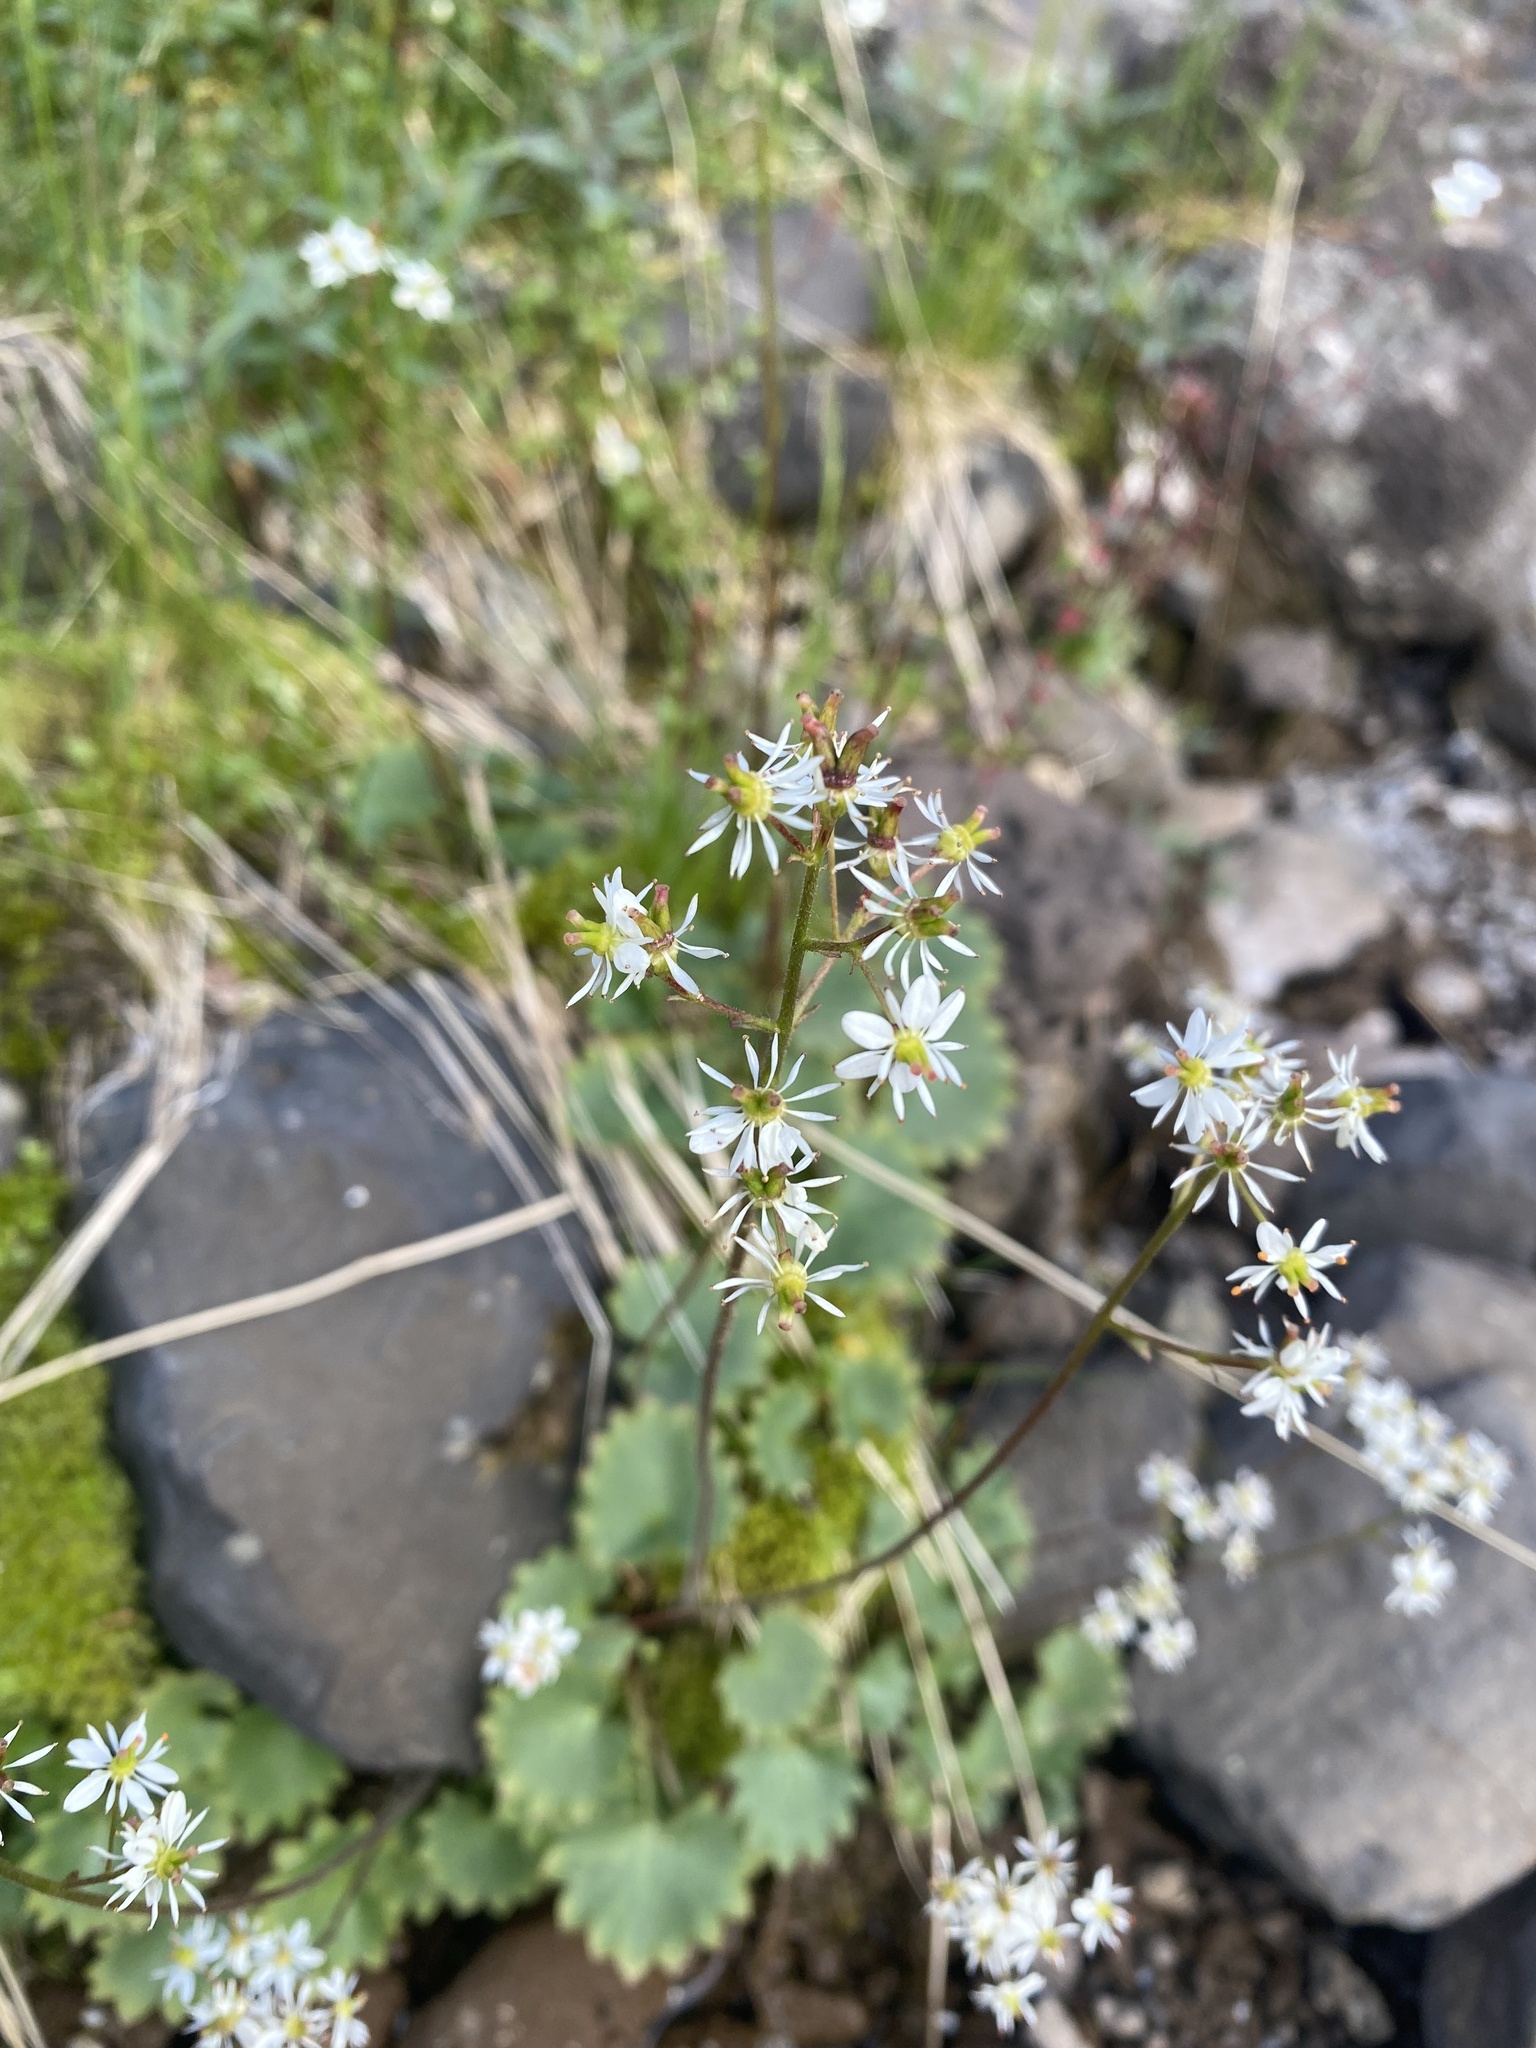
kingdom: Plantae
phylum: Tracheophyta
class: Magnoliopsida
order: Saxifragales
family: Saxifragaceae
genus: Micranthes
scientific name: Micranthes nelsoniana
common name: Nelson's saxifrage
